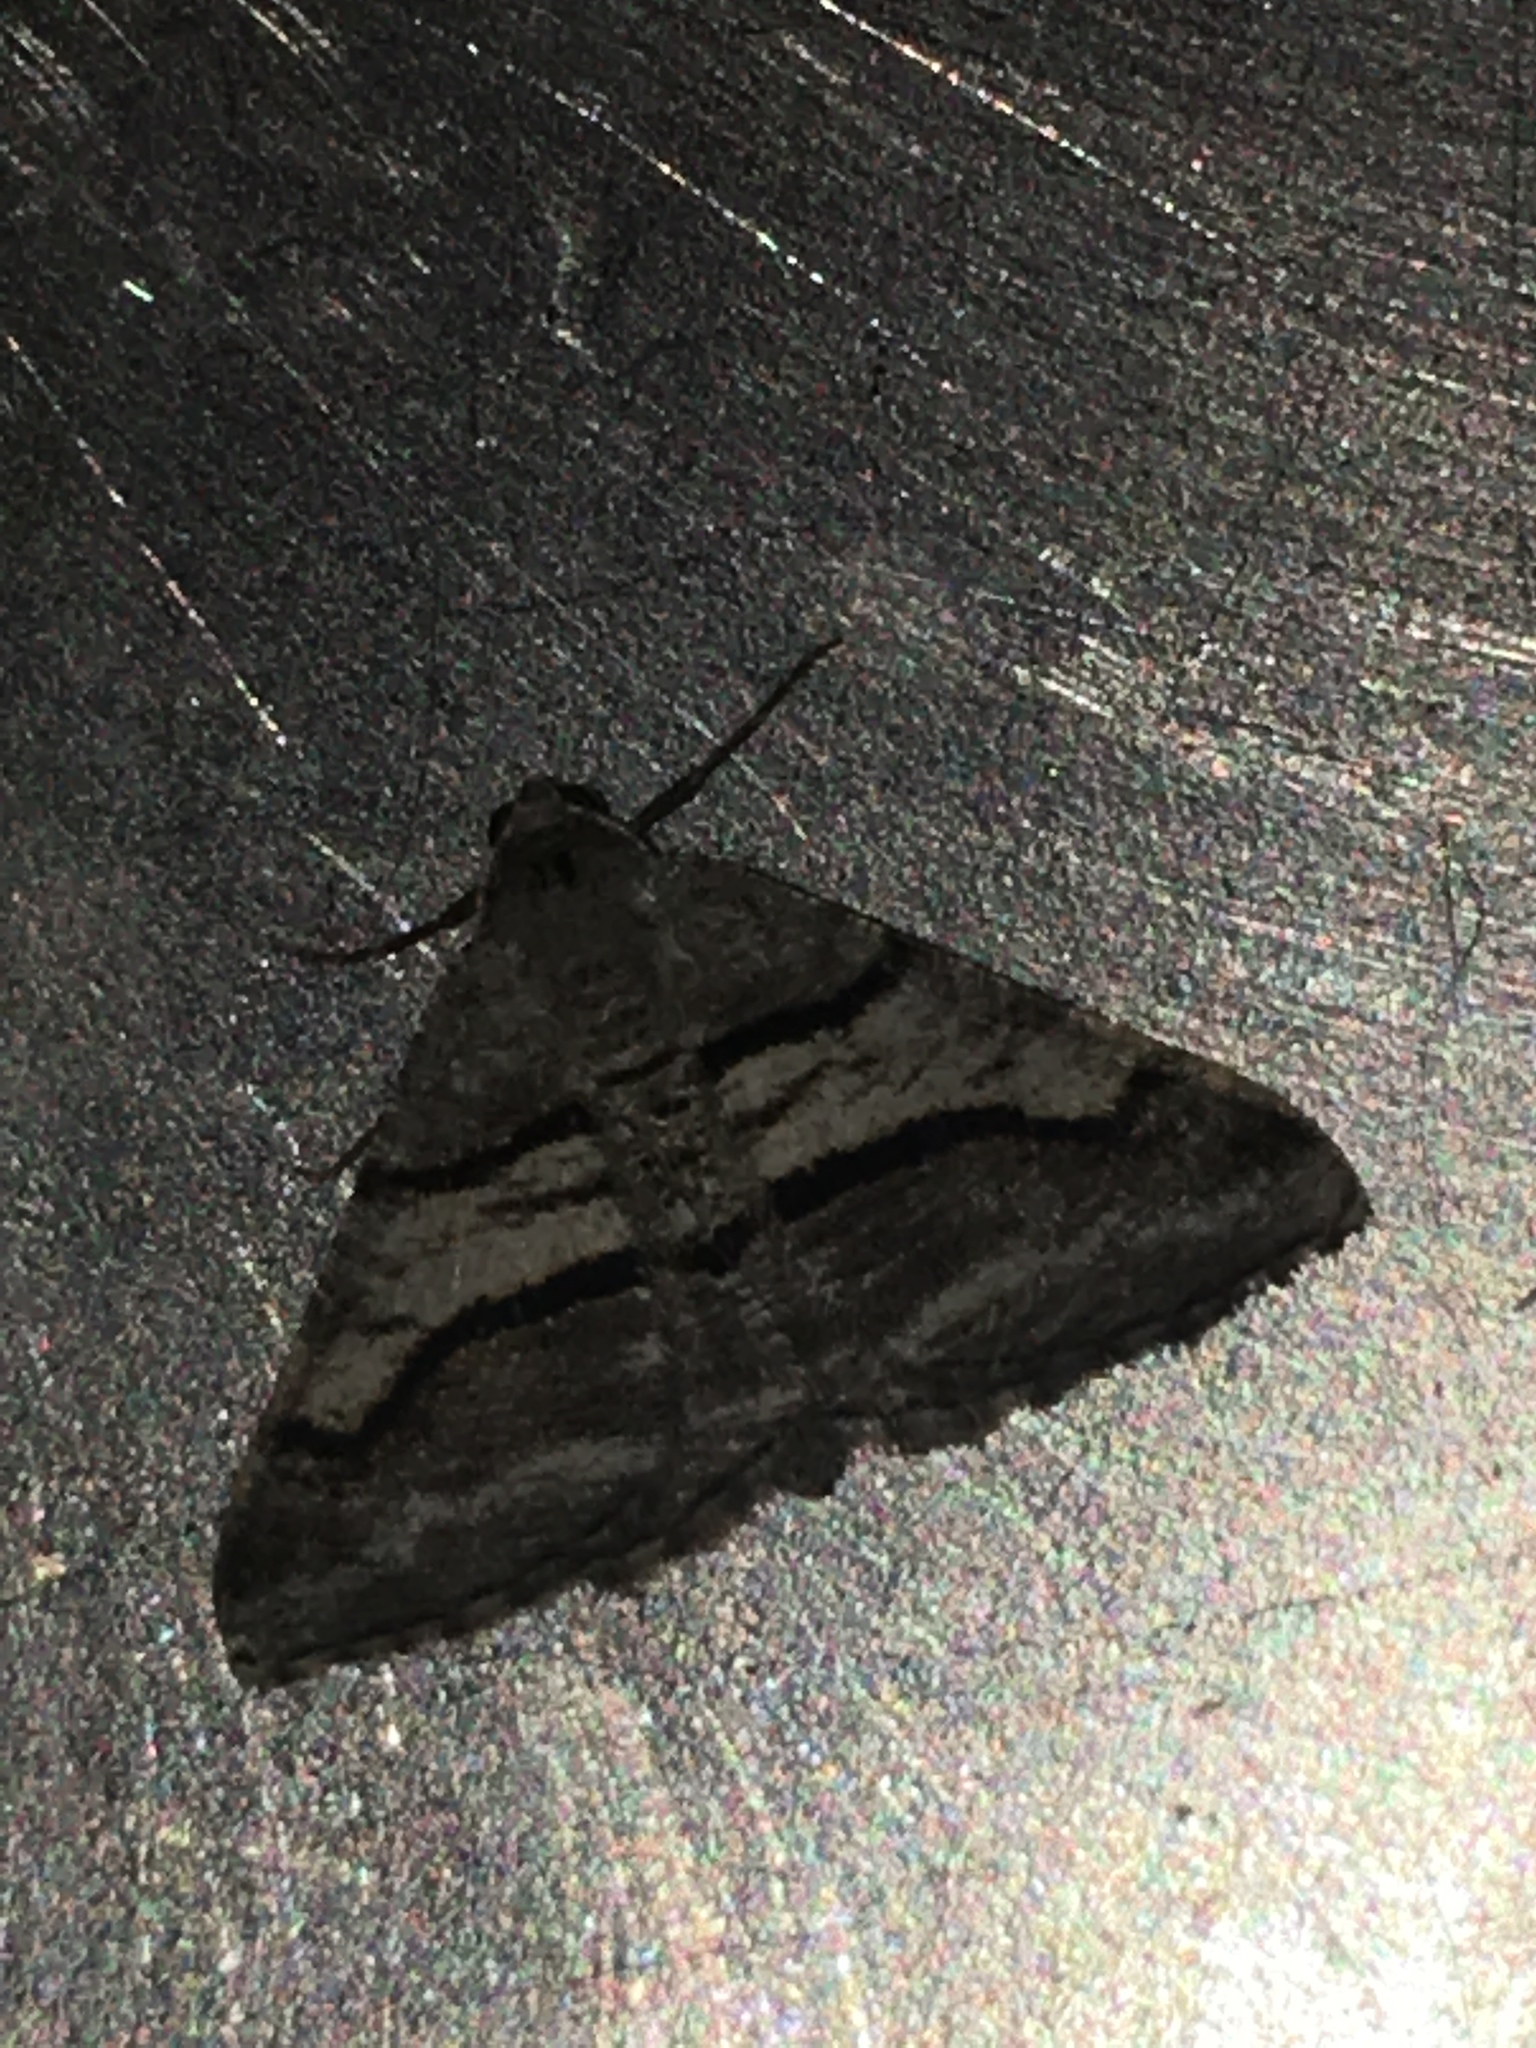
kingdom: Animalia
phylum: Arthropoda
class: Insecta
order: Lepidoptera
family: Geometridae
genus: Digrammia
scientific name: Digrammia continuata
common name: Curve-lined angle
